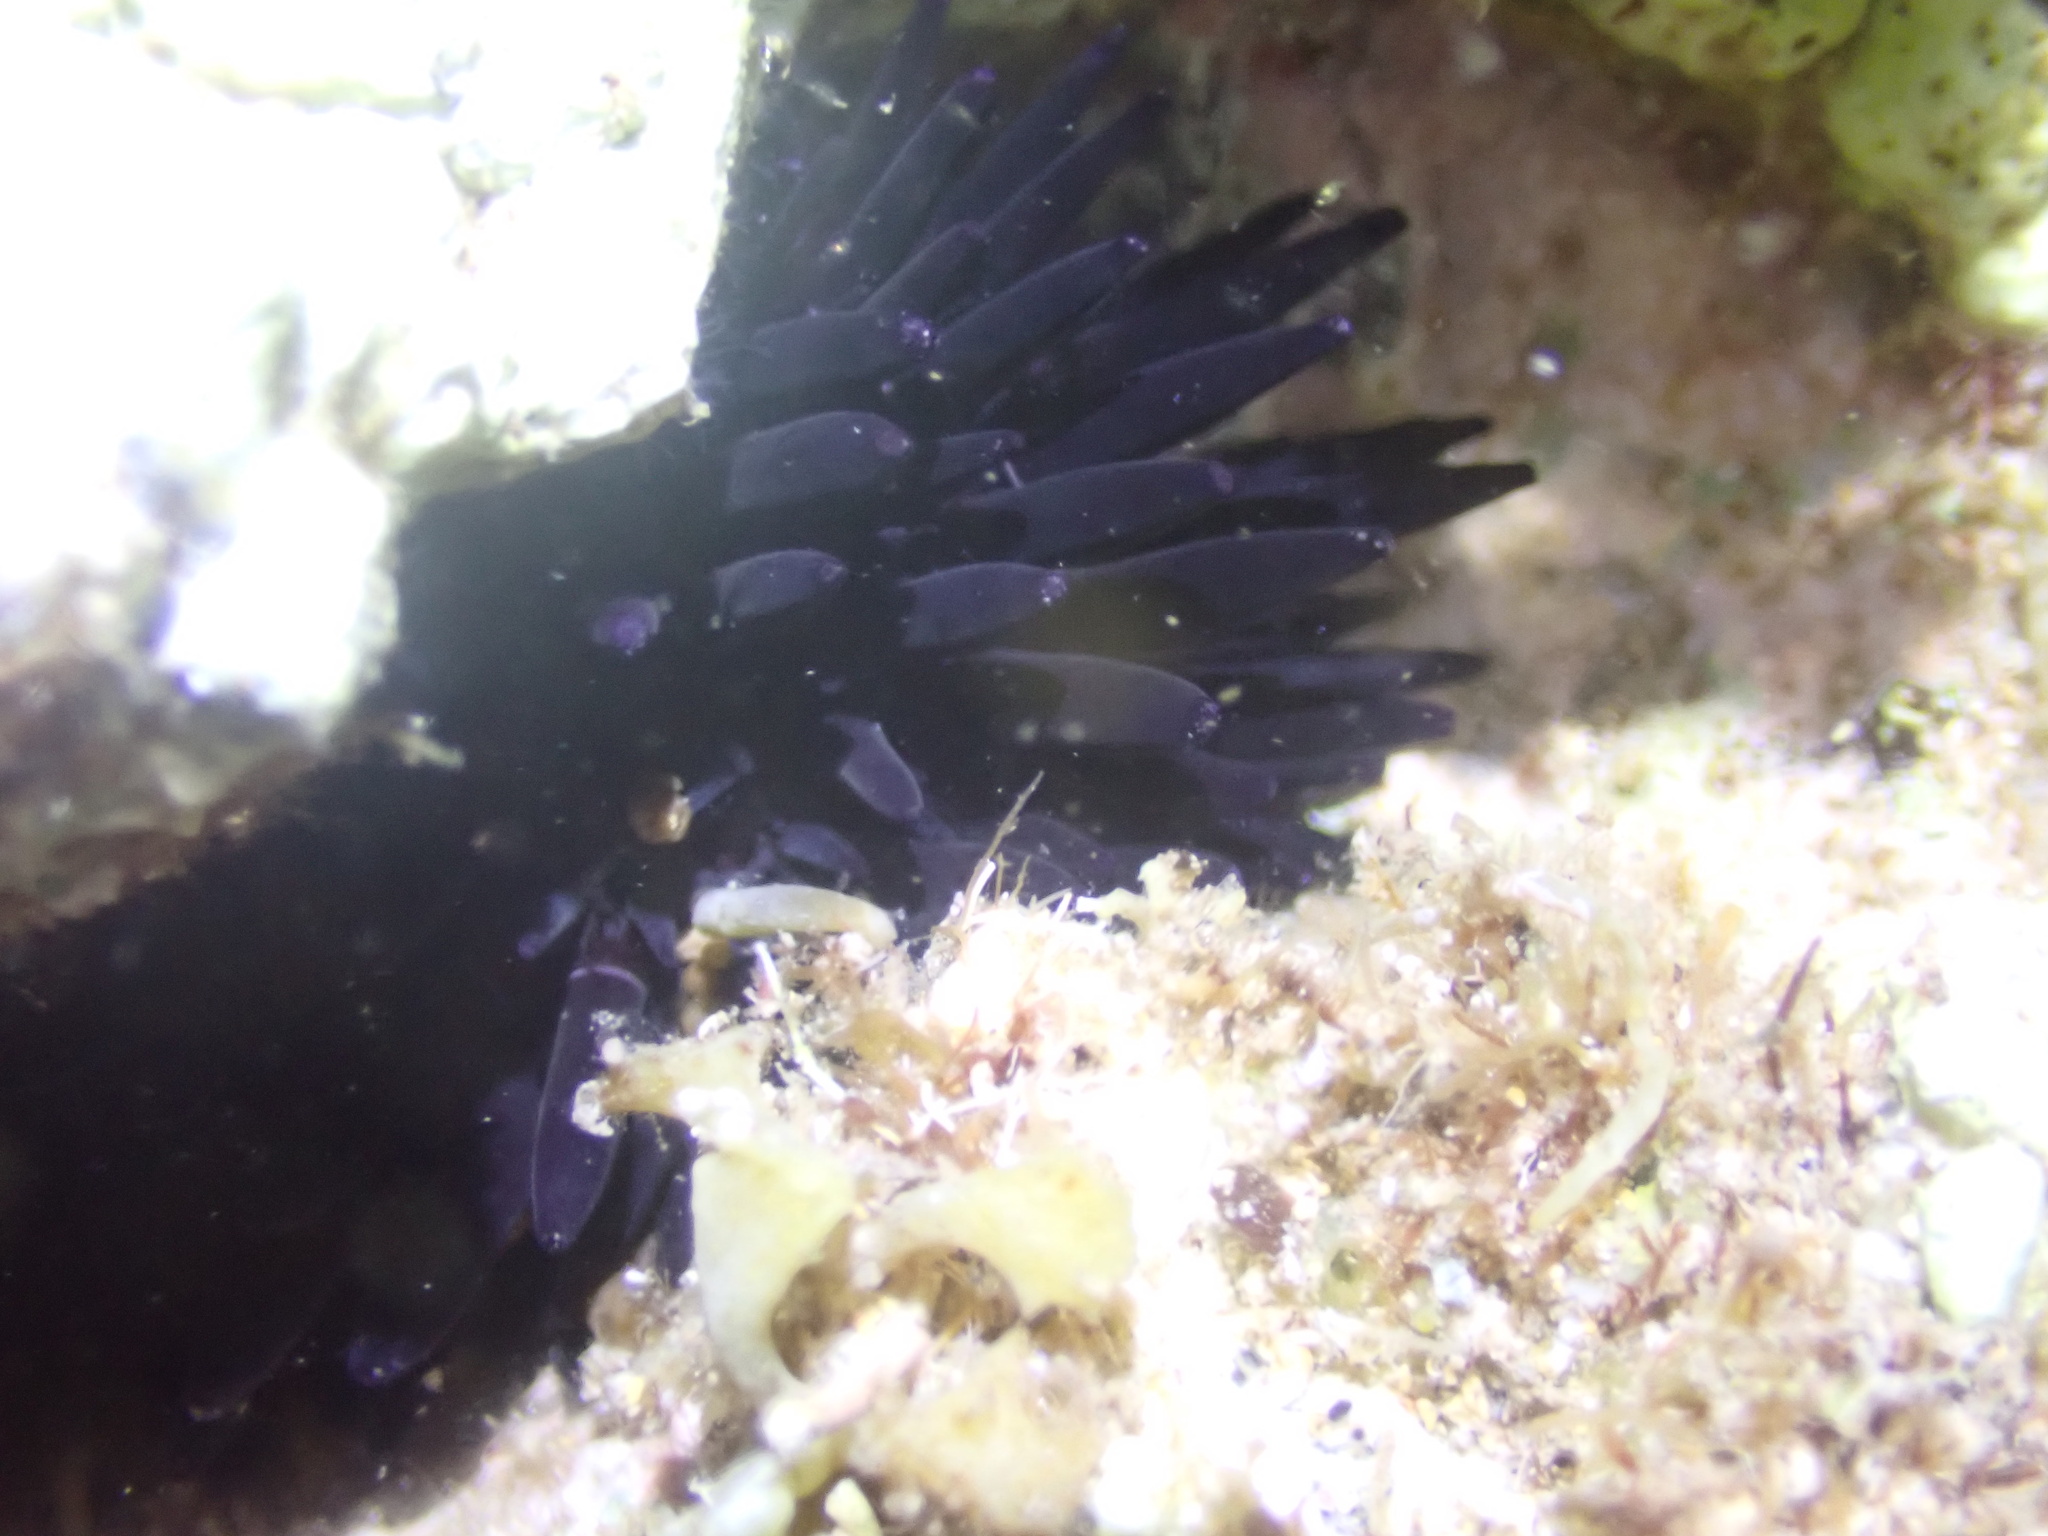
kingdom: Animalia
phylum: Echinodermata
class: Echinoidea
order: Camarodonta
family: Echinometridae
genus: Echinometra
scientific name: Echinometra oblonga
